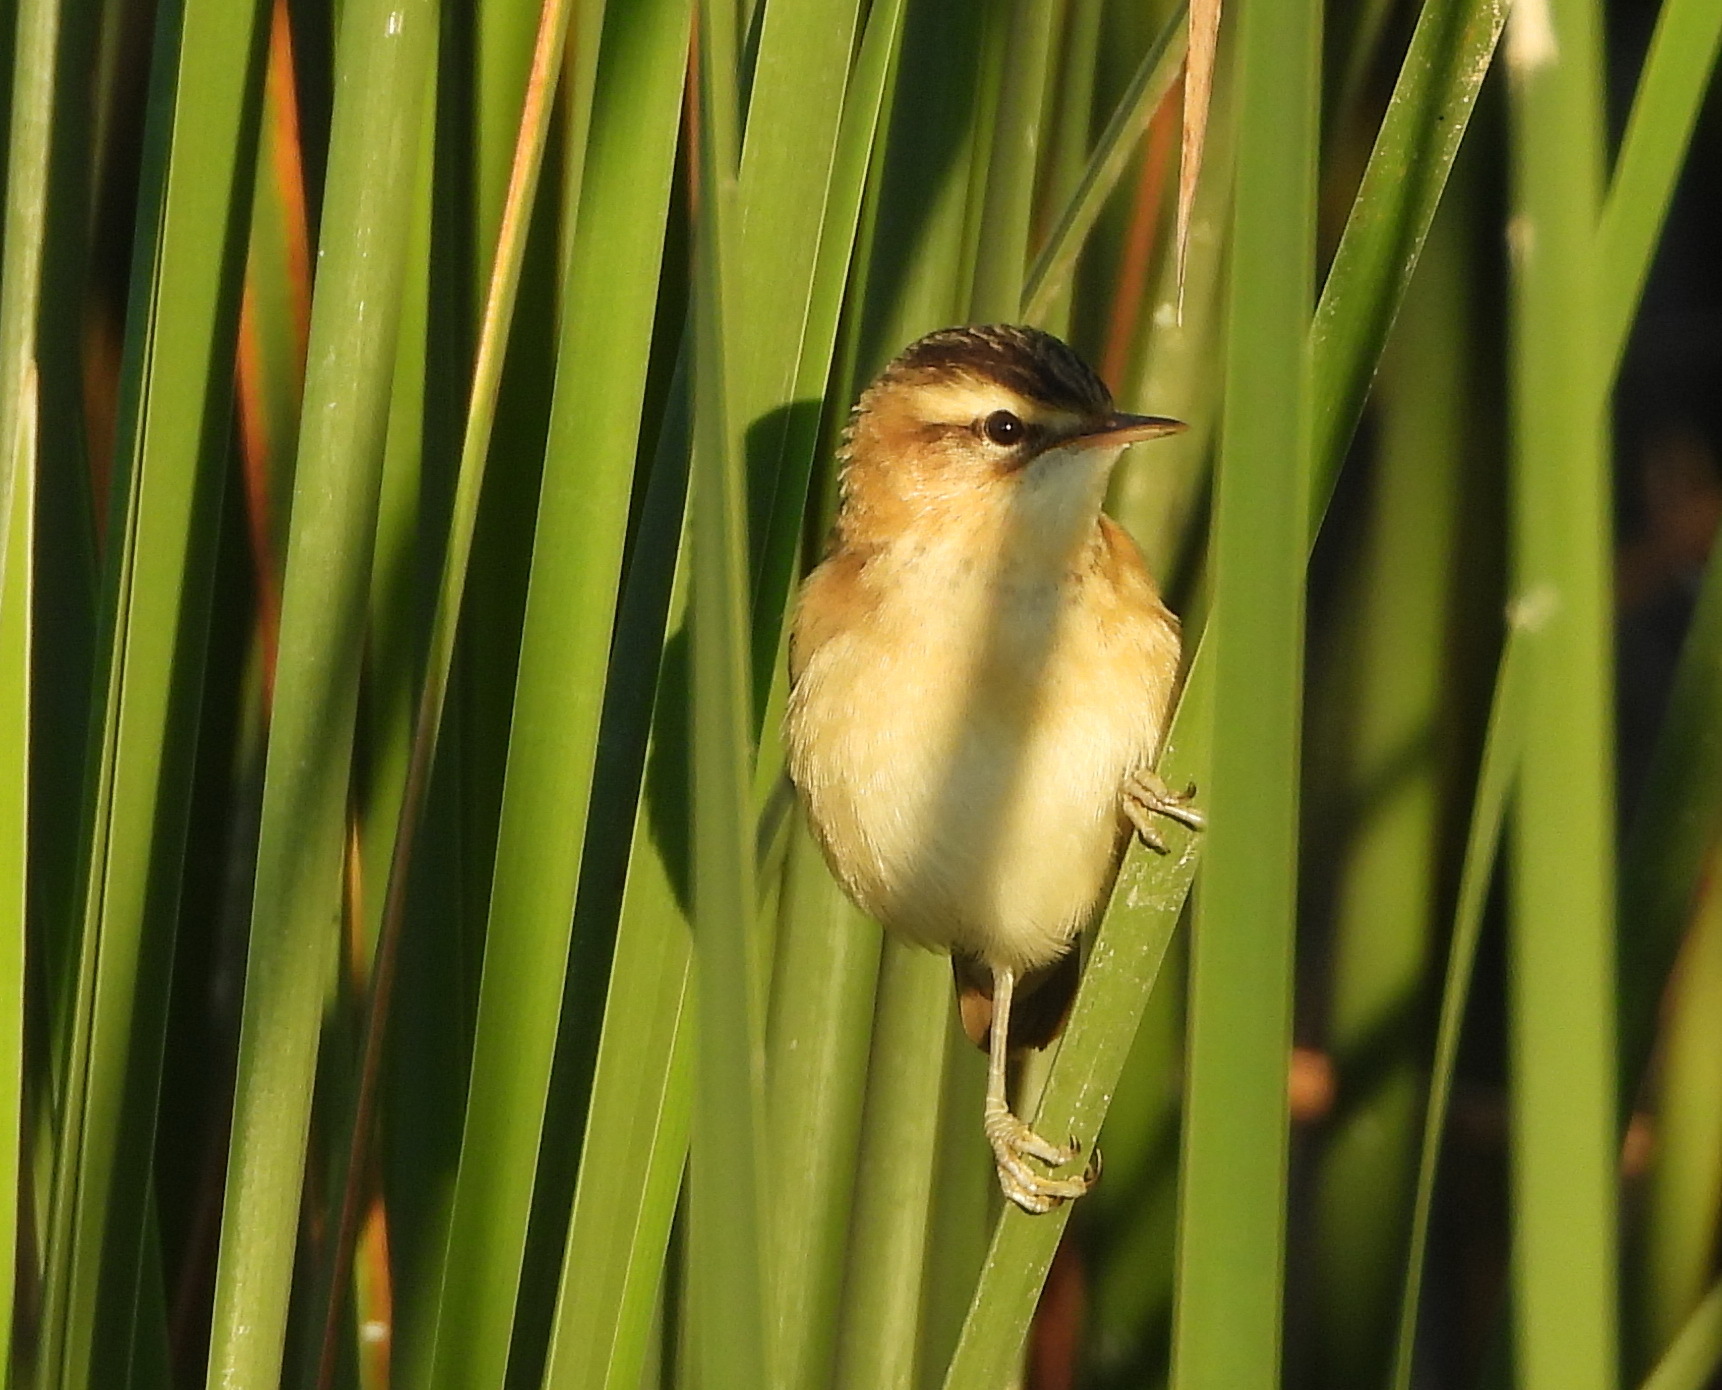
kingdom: Animalia
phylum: Chordata
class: Aves
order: Passeriformes
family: Acrocephalidae
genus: Acrocephalus
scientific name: Acrocephalus schoenobaenus
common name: Sedge warbler
